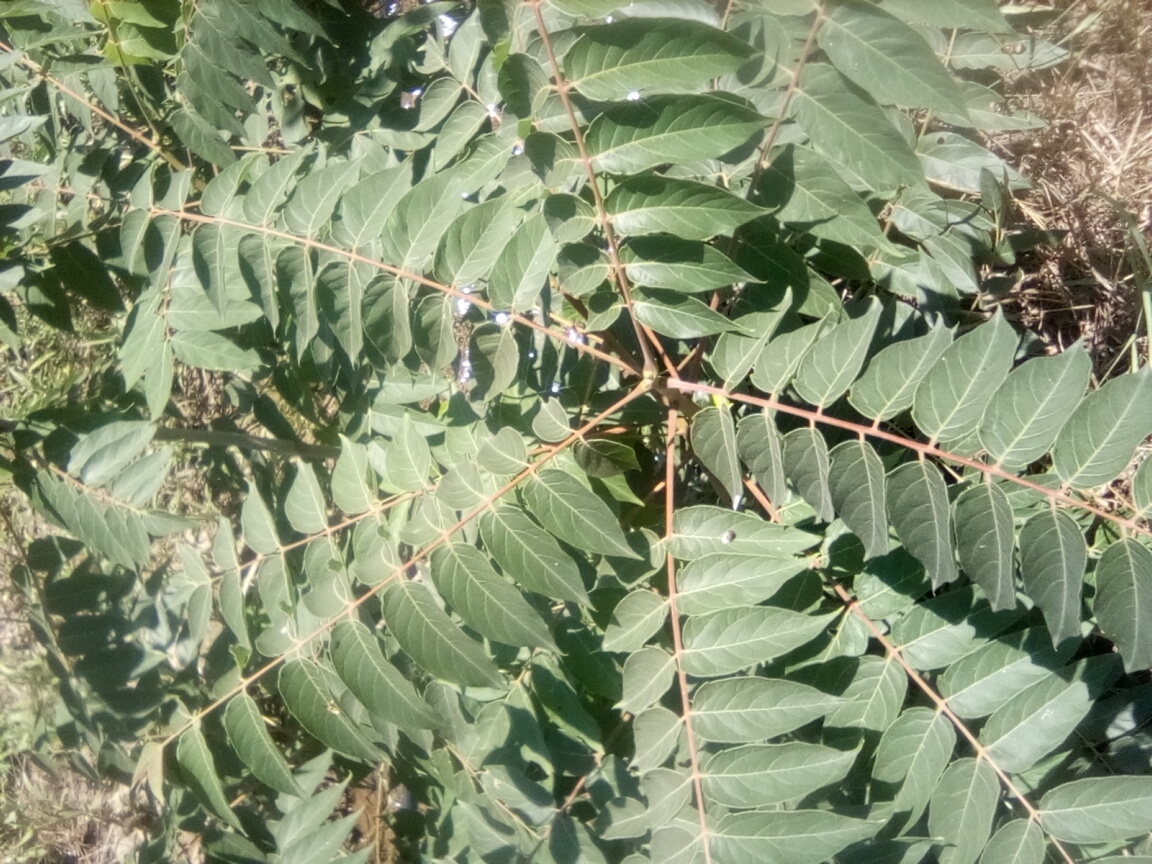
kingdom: Plantae
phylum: Tracheophyta
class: Magnoliopsida
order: Sapindales
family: Simaroubaceae
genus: Ailanthus
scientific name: Ailanthus altissima
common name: Tree-of-heaven
